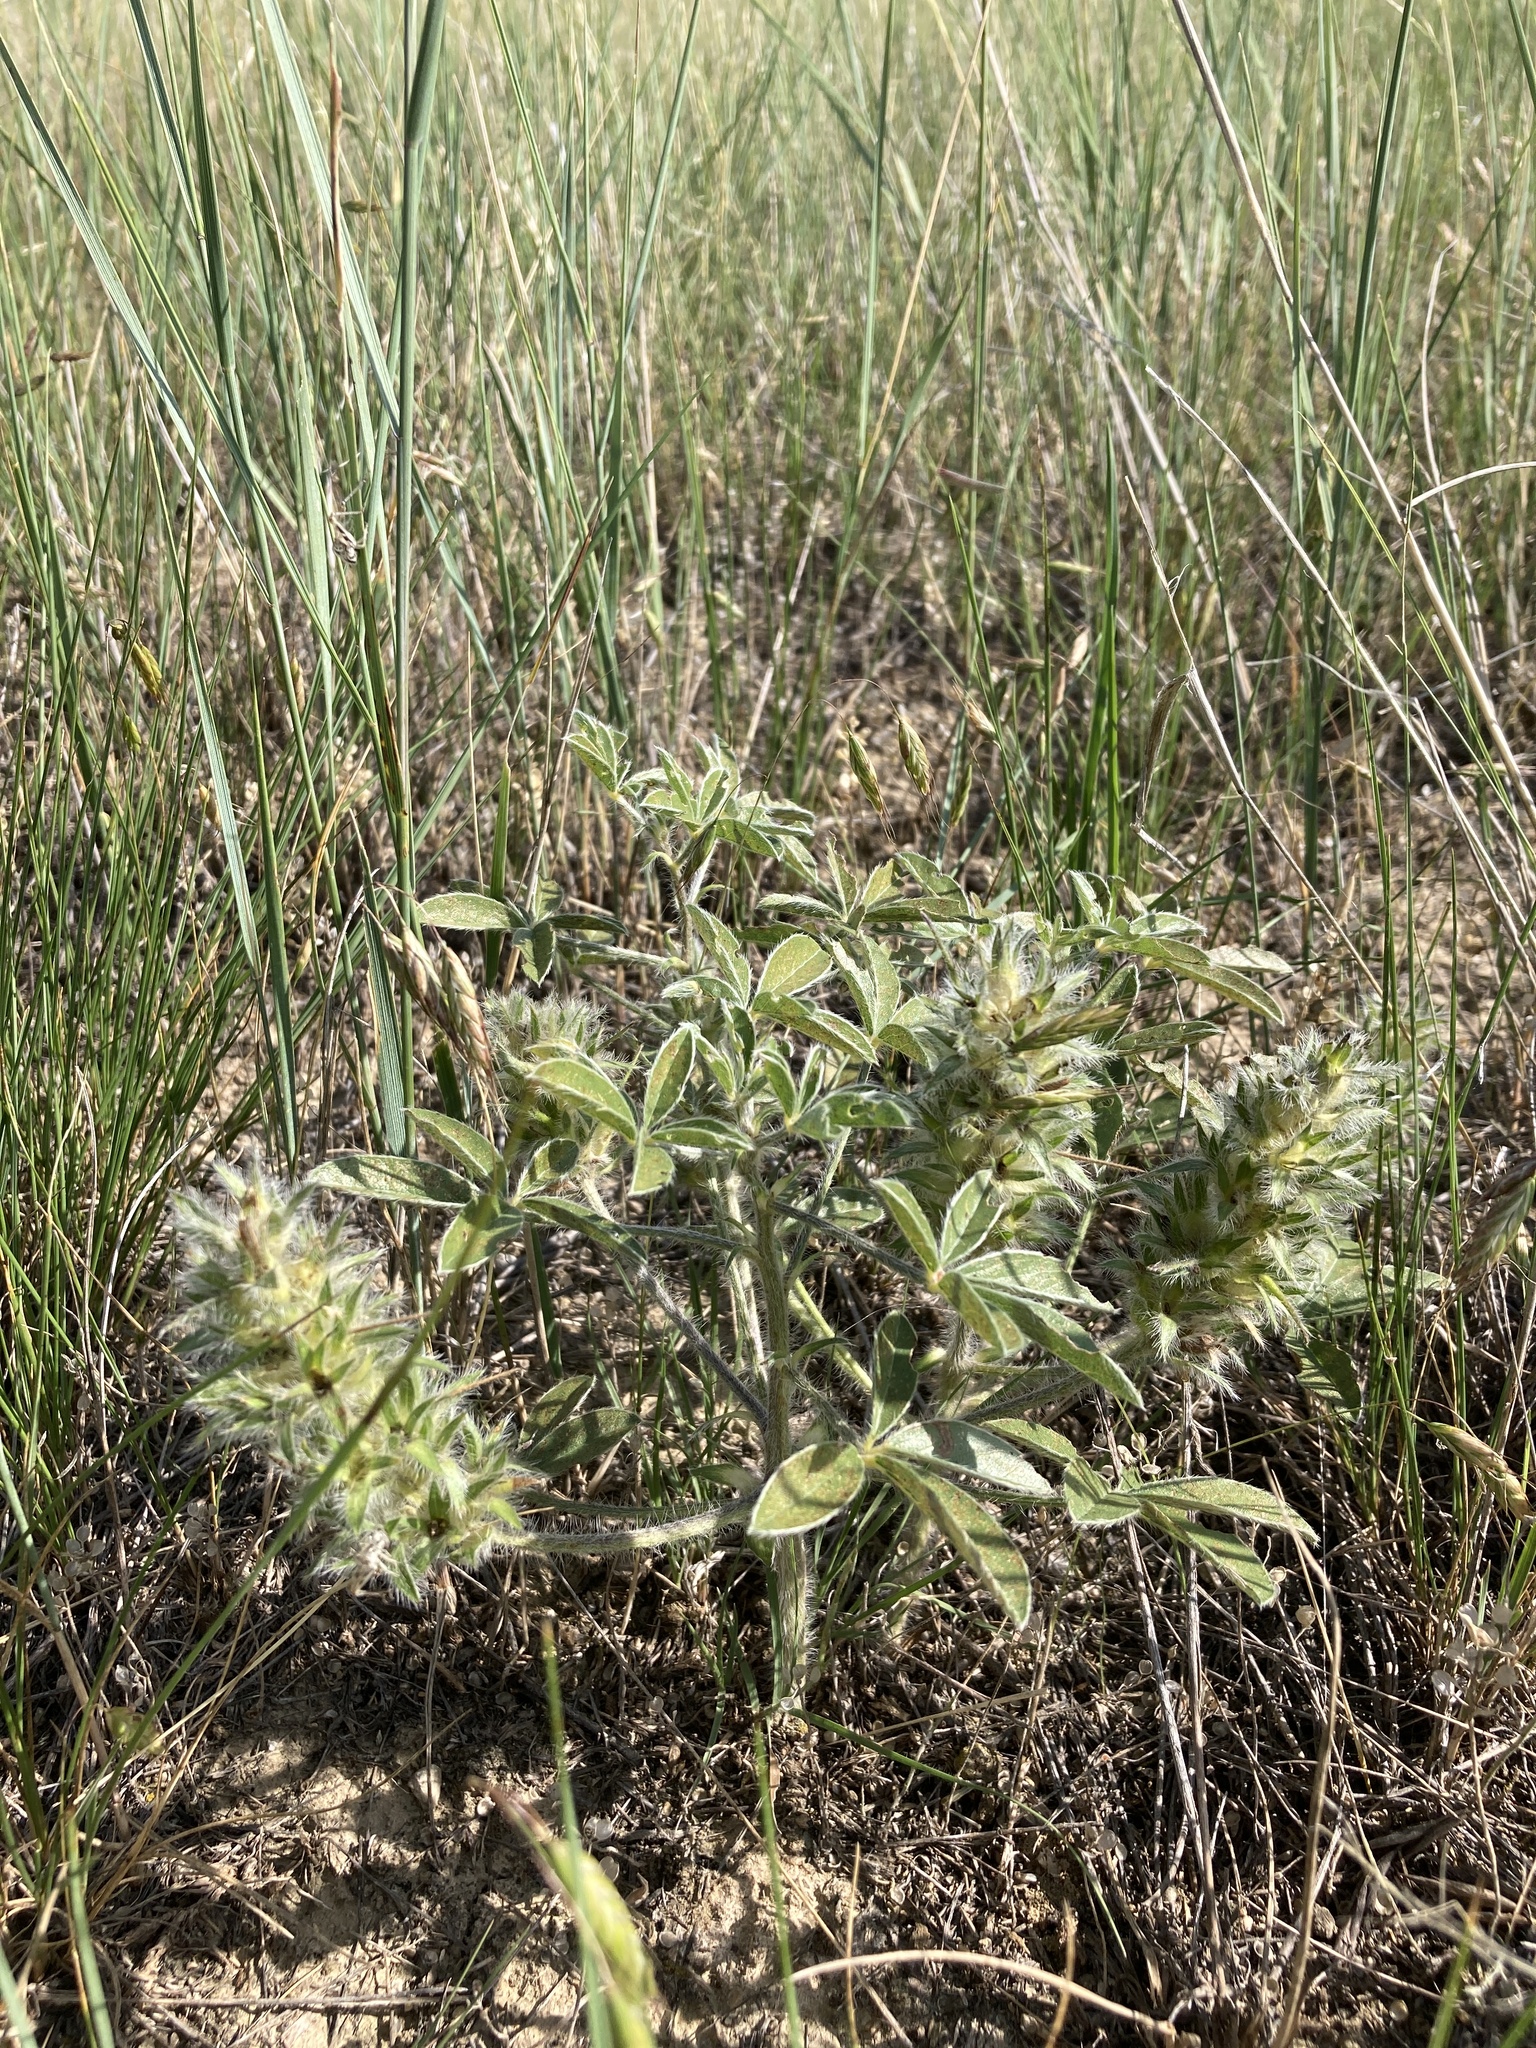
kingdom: Plantae
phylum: Tracheophyta
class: Magnoliopsida
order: Fabales
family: Fabaceae
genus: Pediomelum
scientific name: Pediomelum esculentum
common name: Indian-turnip
